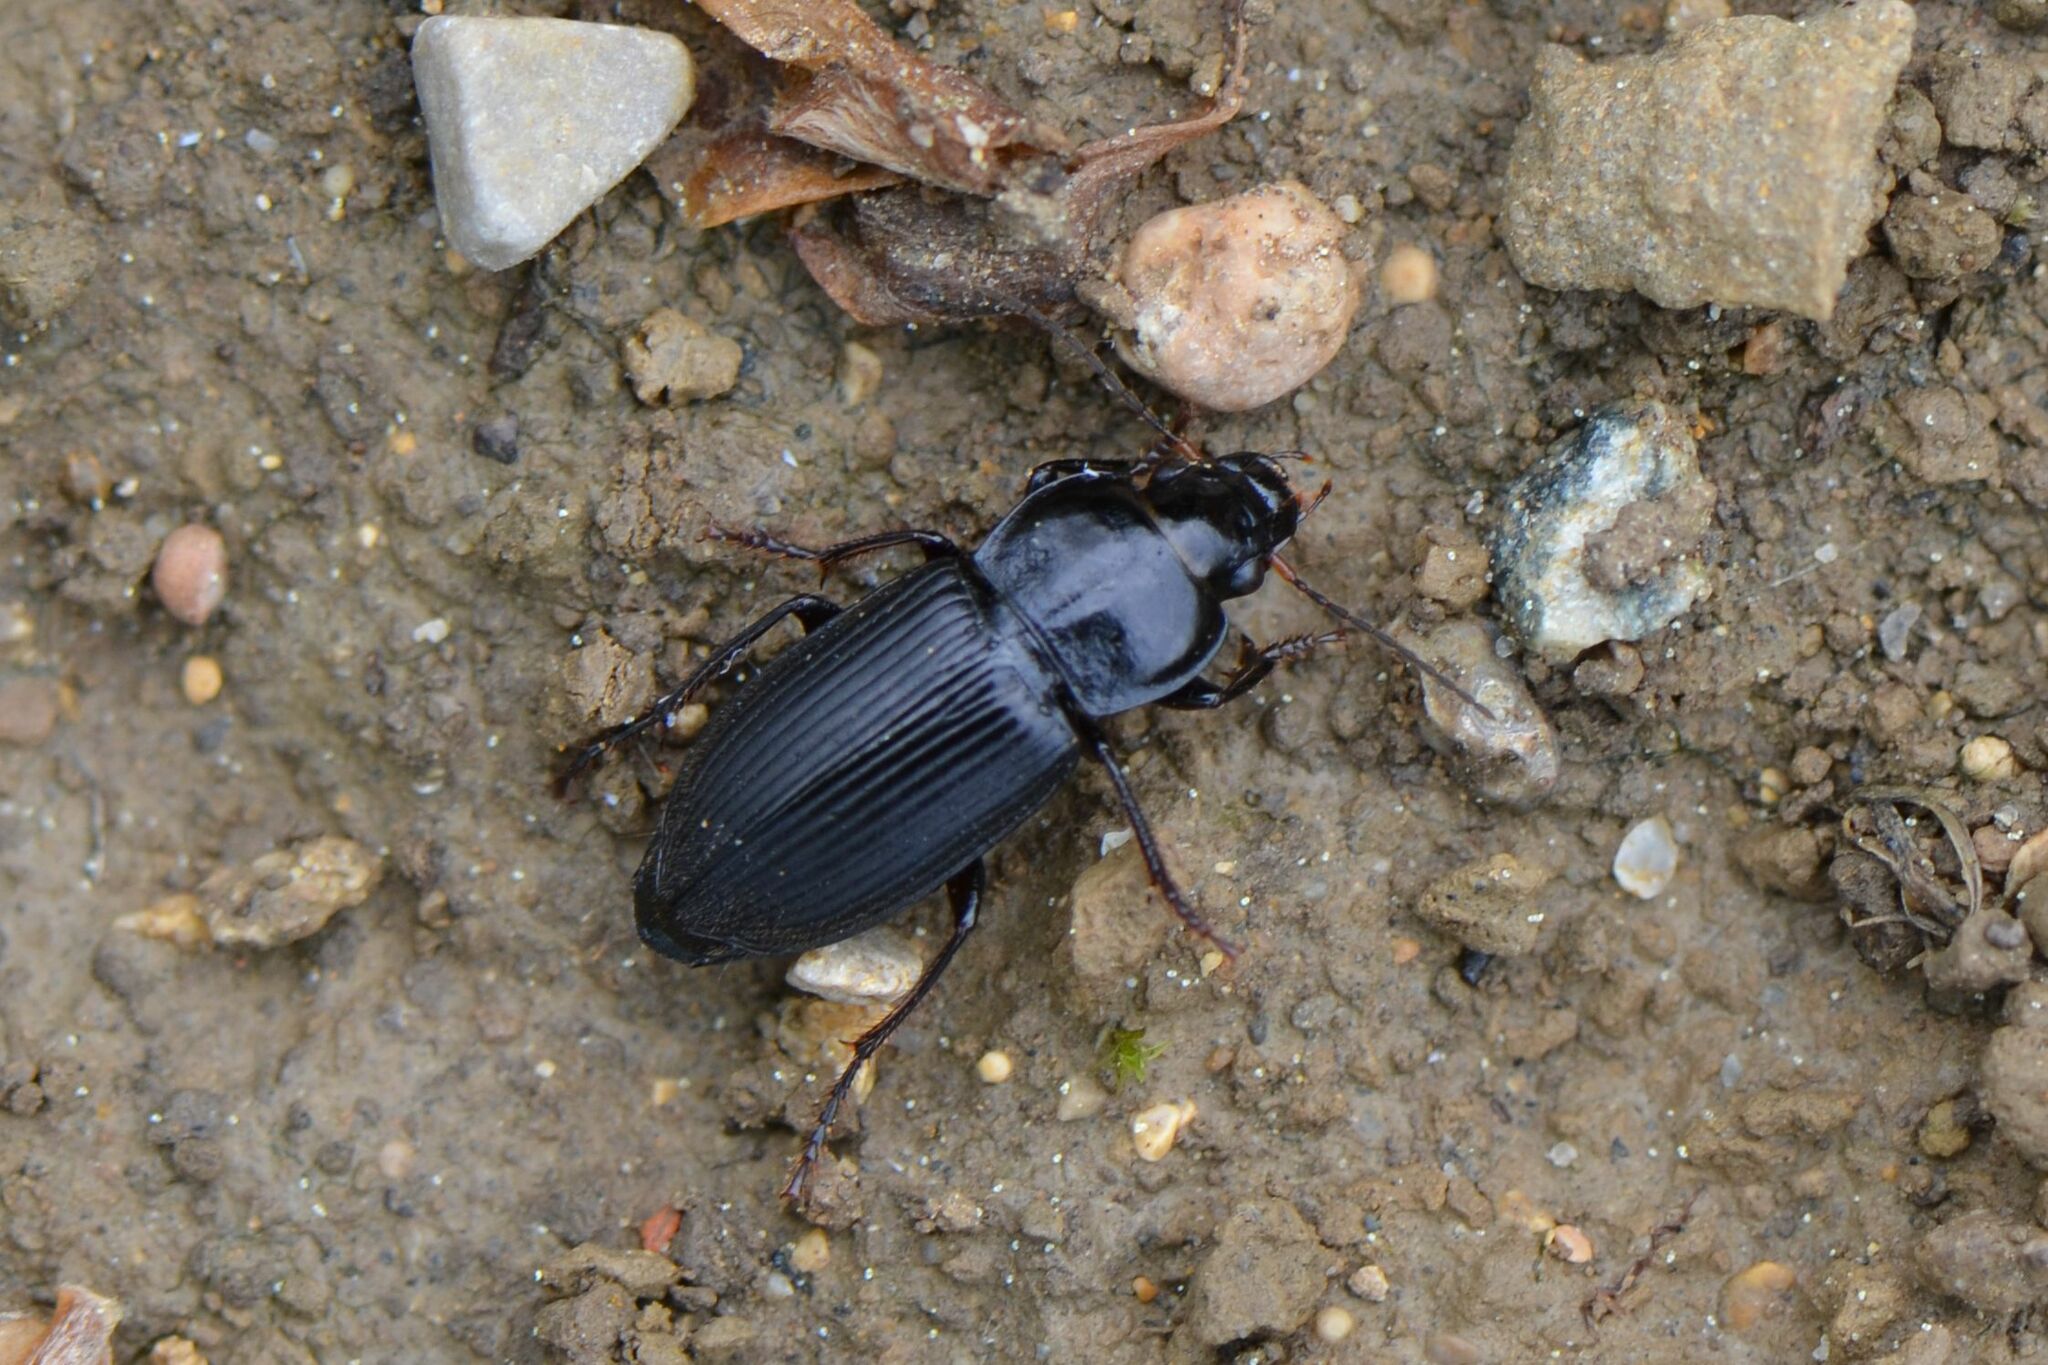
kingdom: Animalia
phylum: Arthropoda
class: Insecta
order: Coleoptera
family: Carabidae
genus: Anisodactylus
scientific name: Anisodactylus binotatus
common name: Two-marked harp ground beetle
